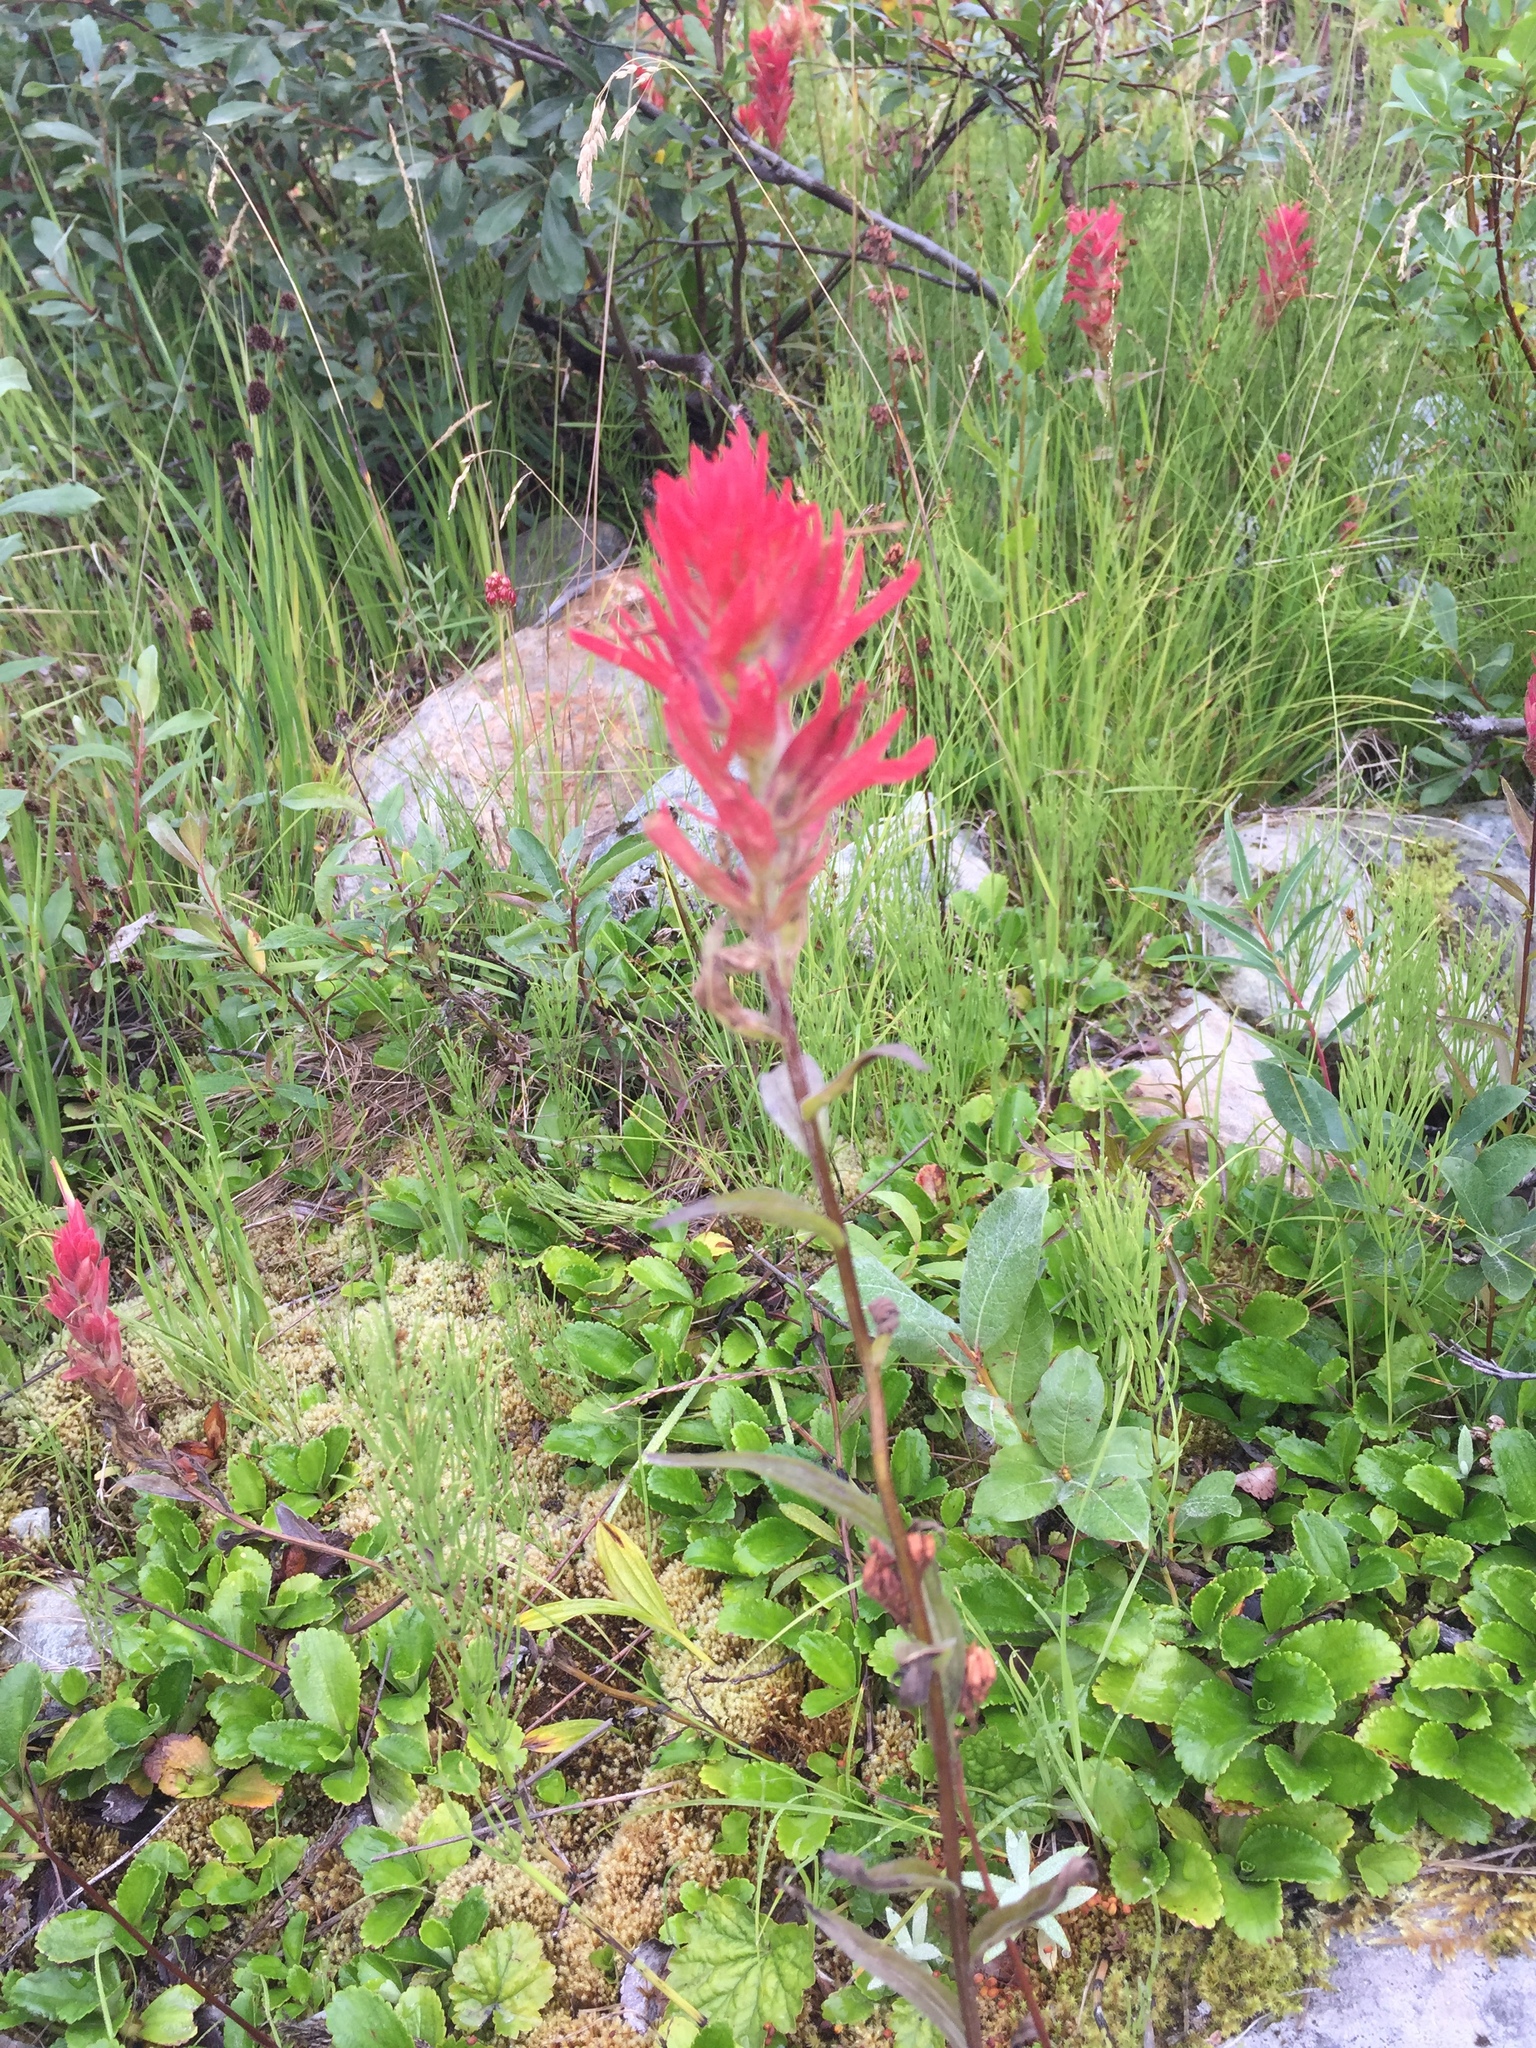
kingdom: Plantae
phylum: Tracheophyta
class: Magnoliopsida
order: Lamiales
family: Orobanchaceae
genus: Castilleja
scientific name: Castilleja miniata
